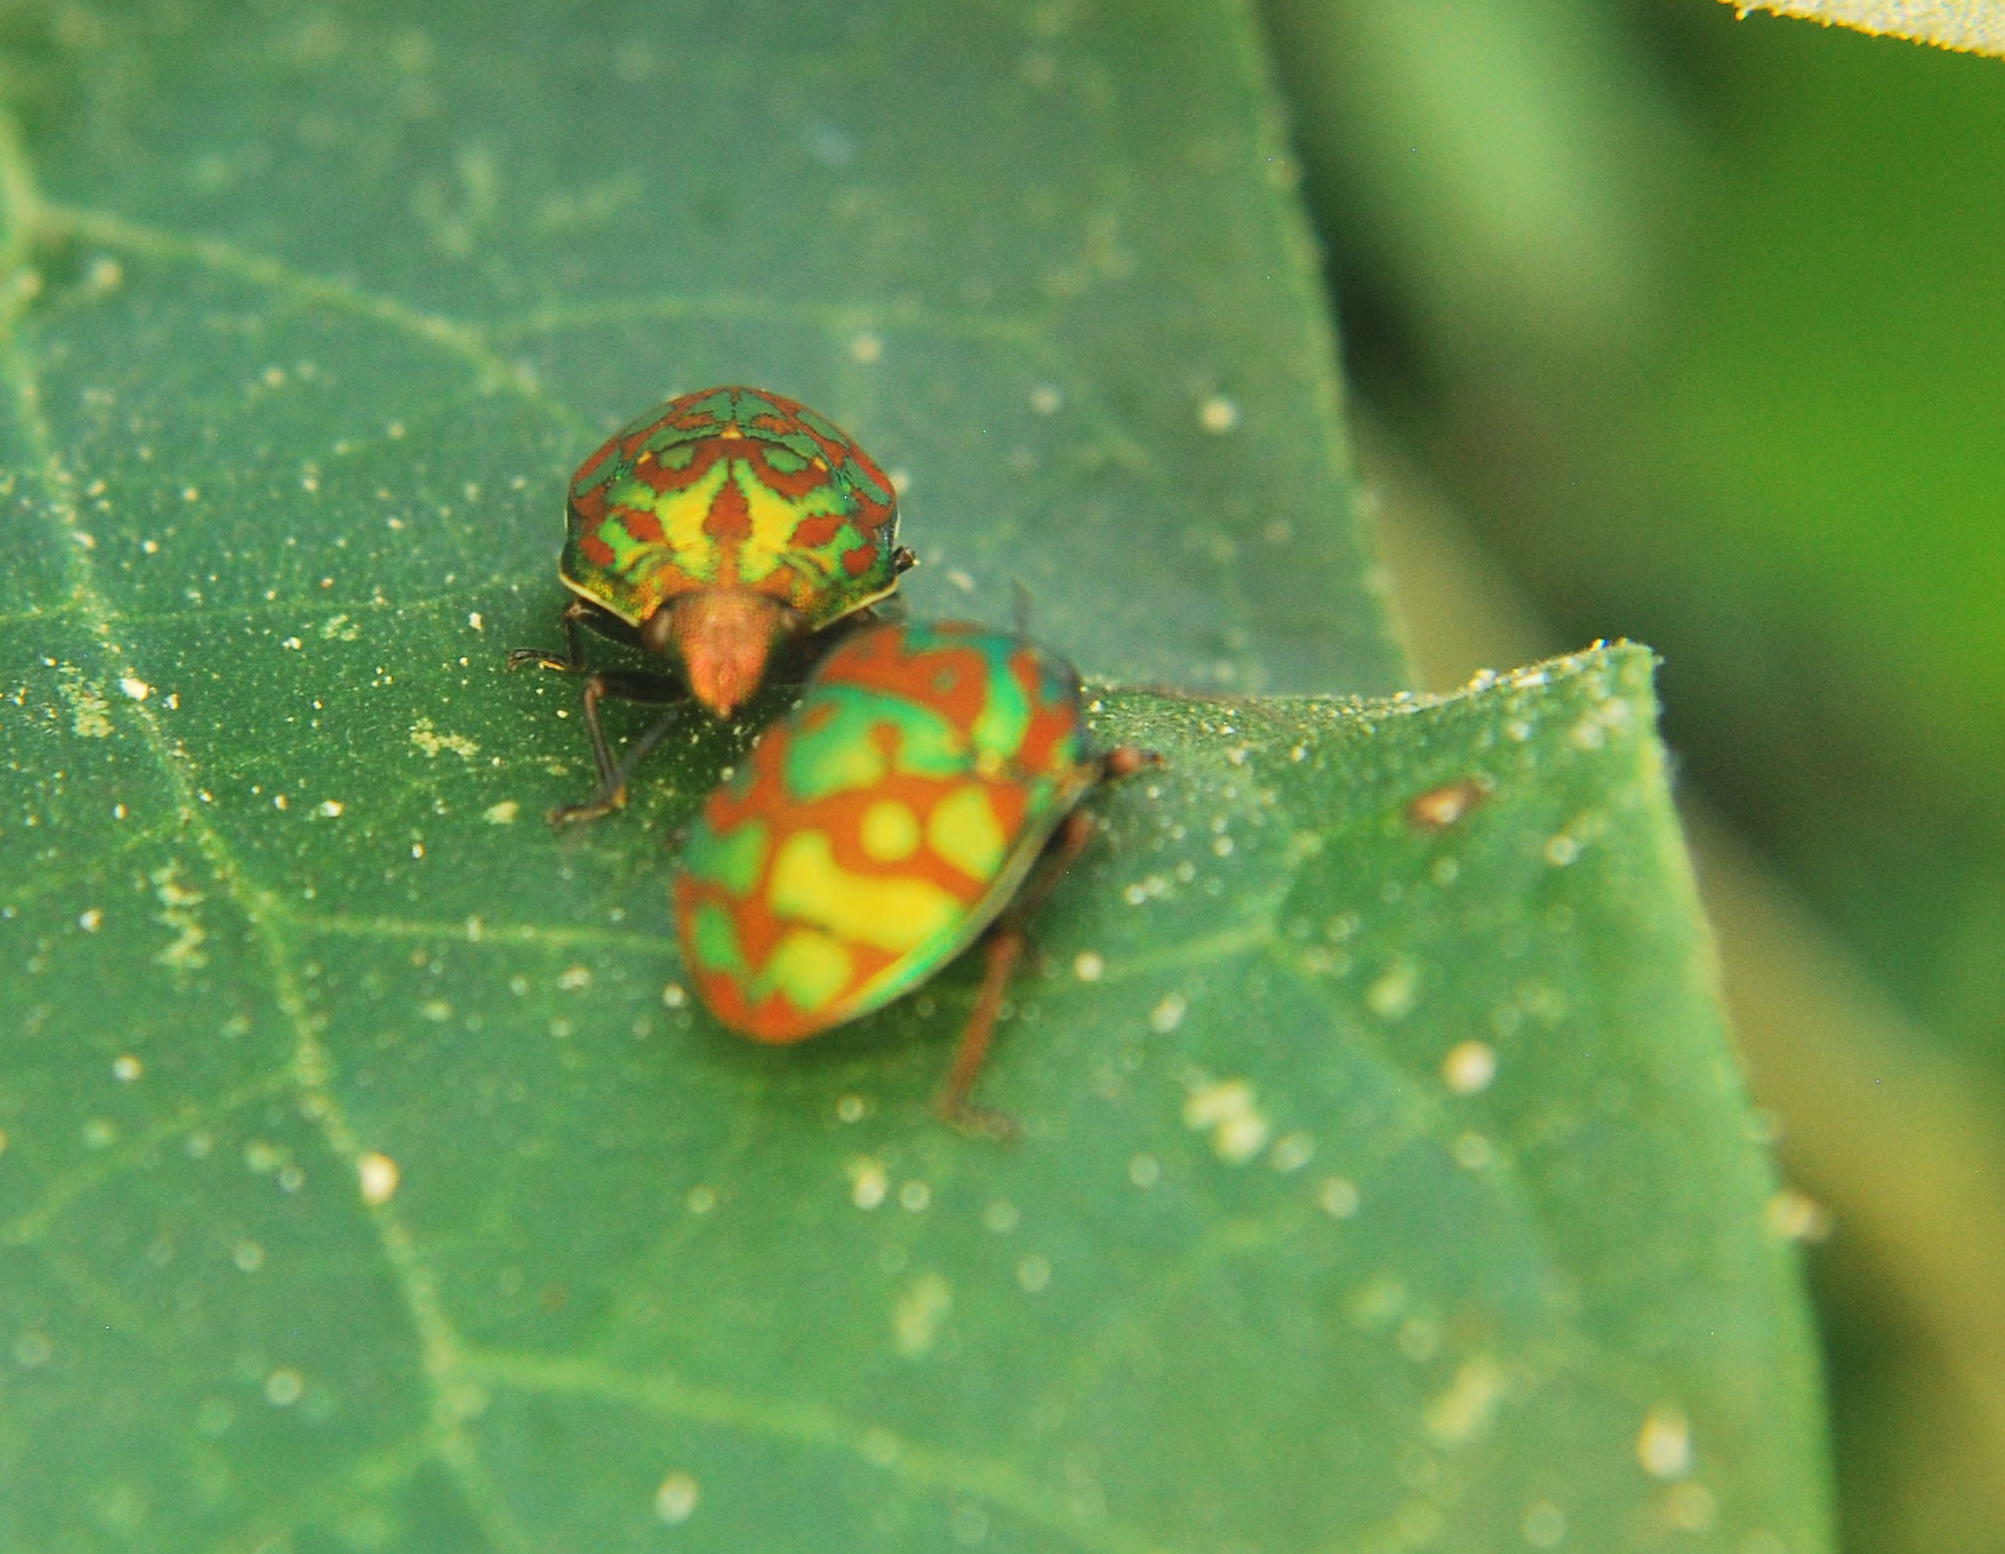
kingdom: Animalia
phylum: Arthropoda
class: Insecta
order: Hemiptera
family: Scutelleridae
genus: Orsilochides
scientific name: Orsilochides variabilis
